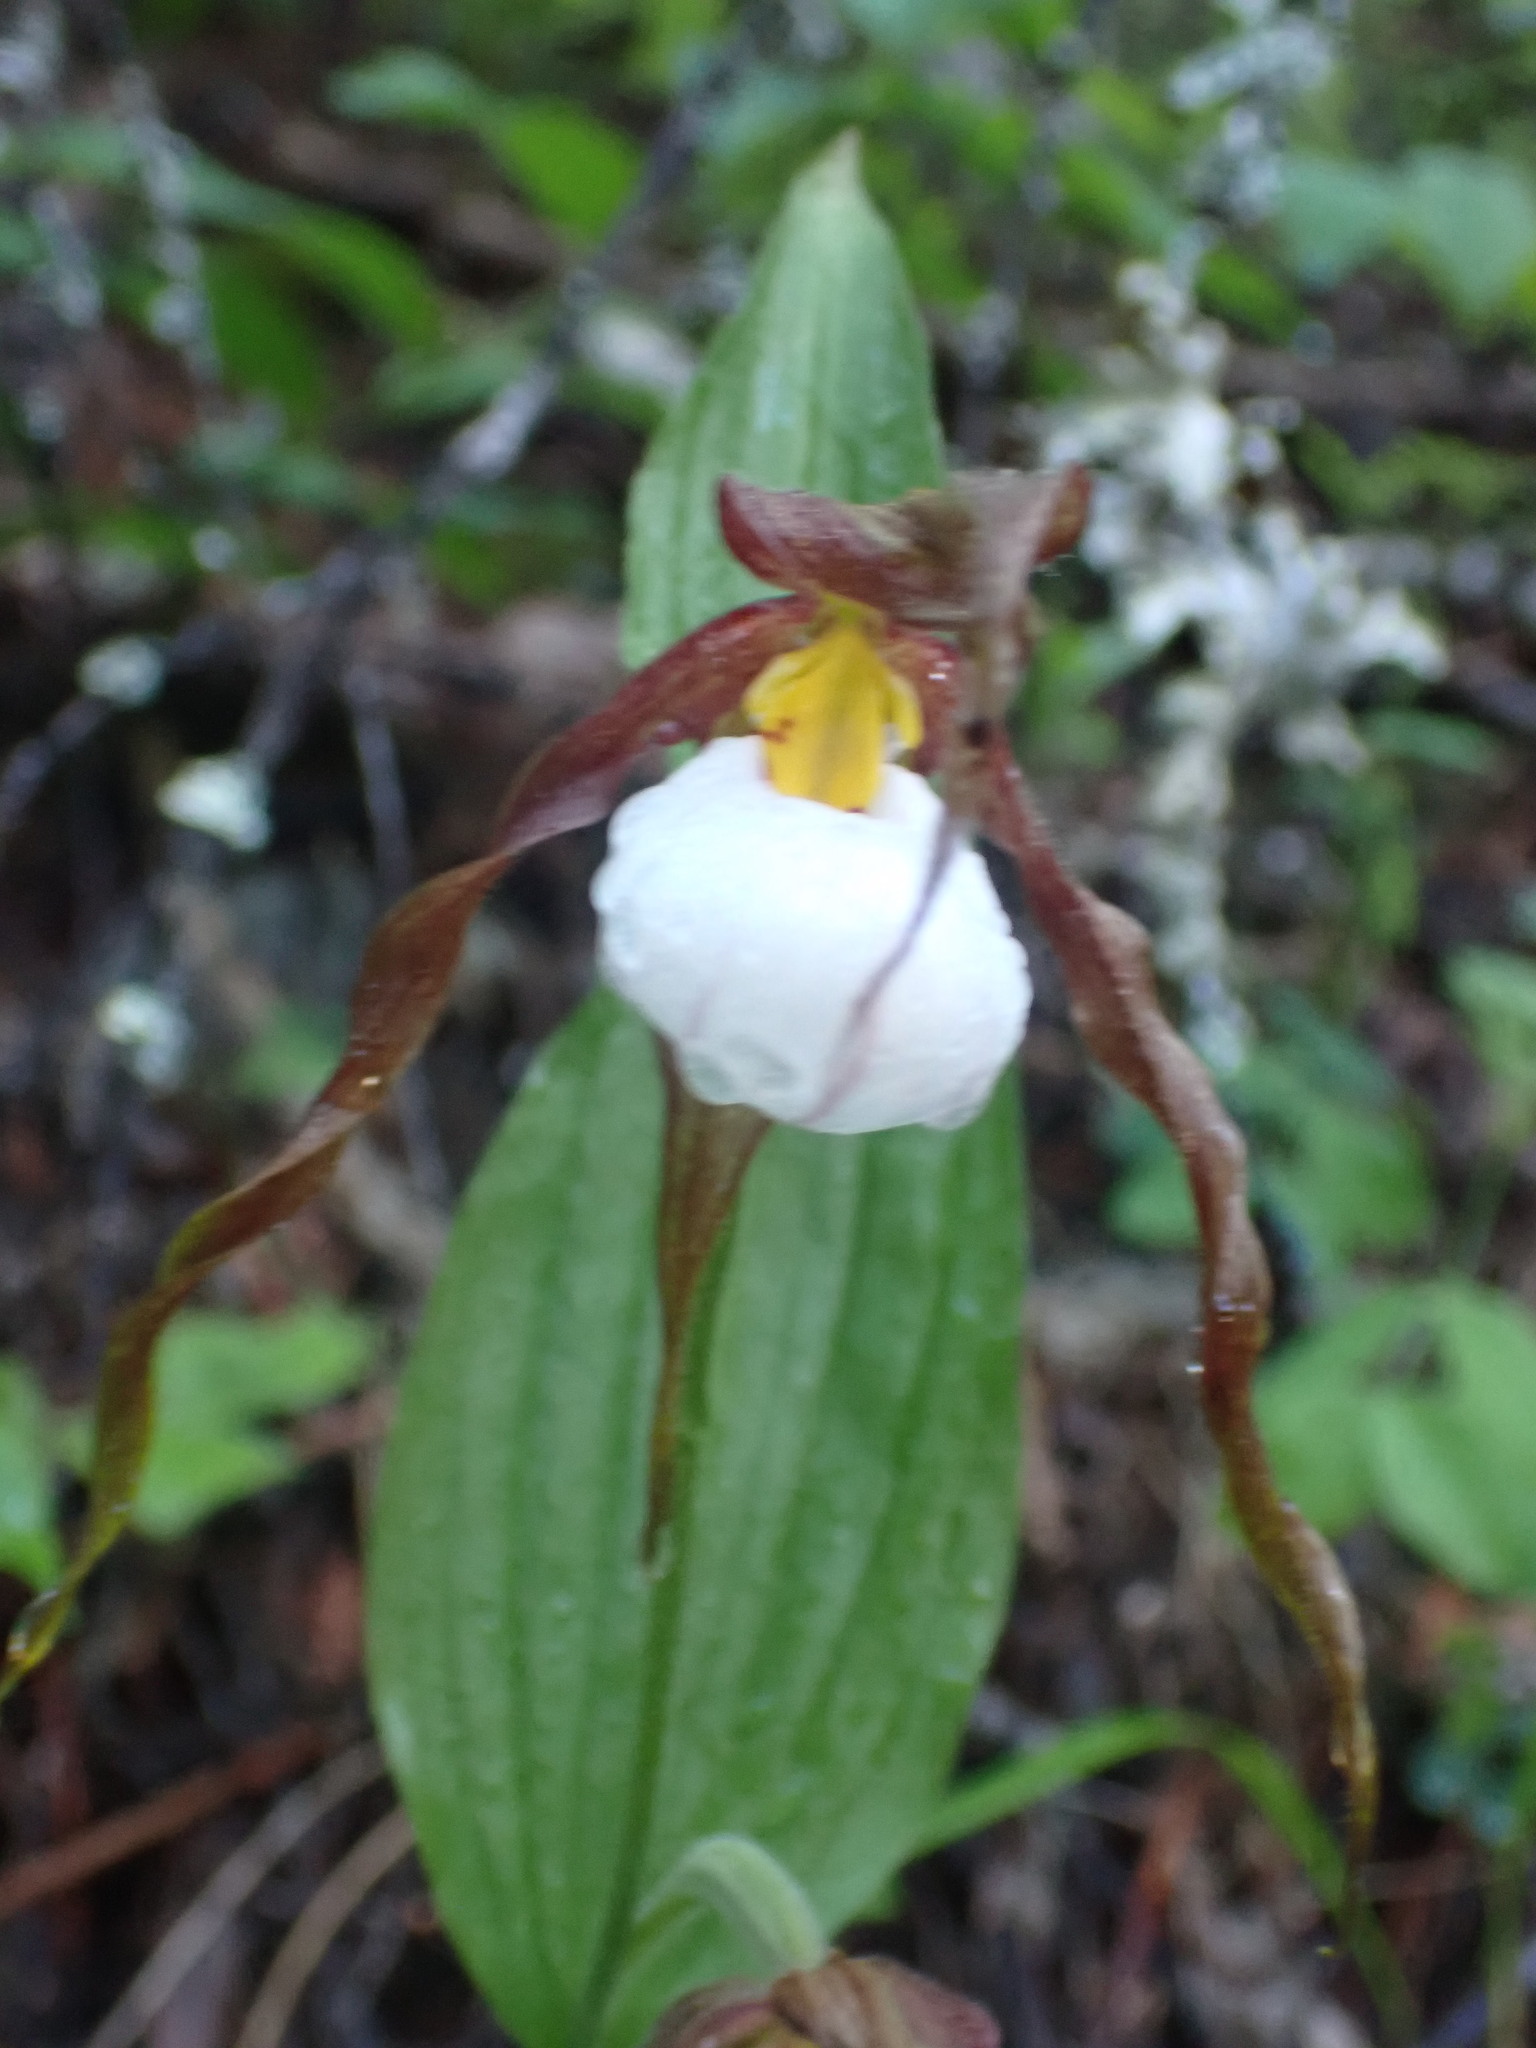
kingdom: Plantae
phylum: Tracheophyta
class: Liliopsida
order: Asparagales
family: Orchidaceae
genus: Cypripedium
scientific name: Cypripedium montanum
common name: Mountain lady's-slipper
